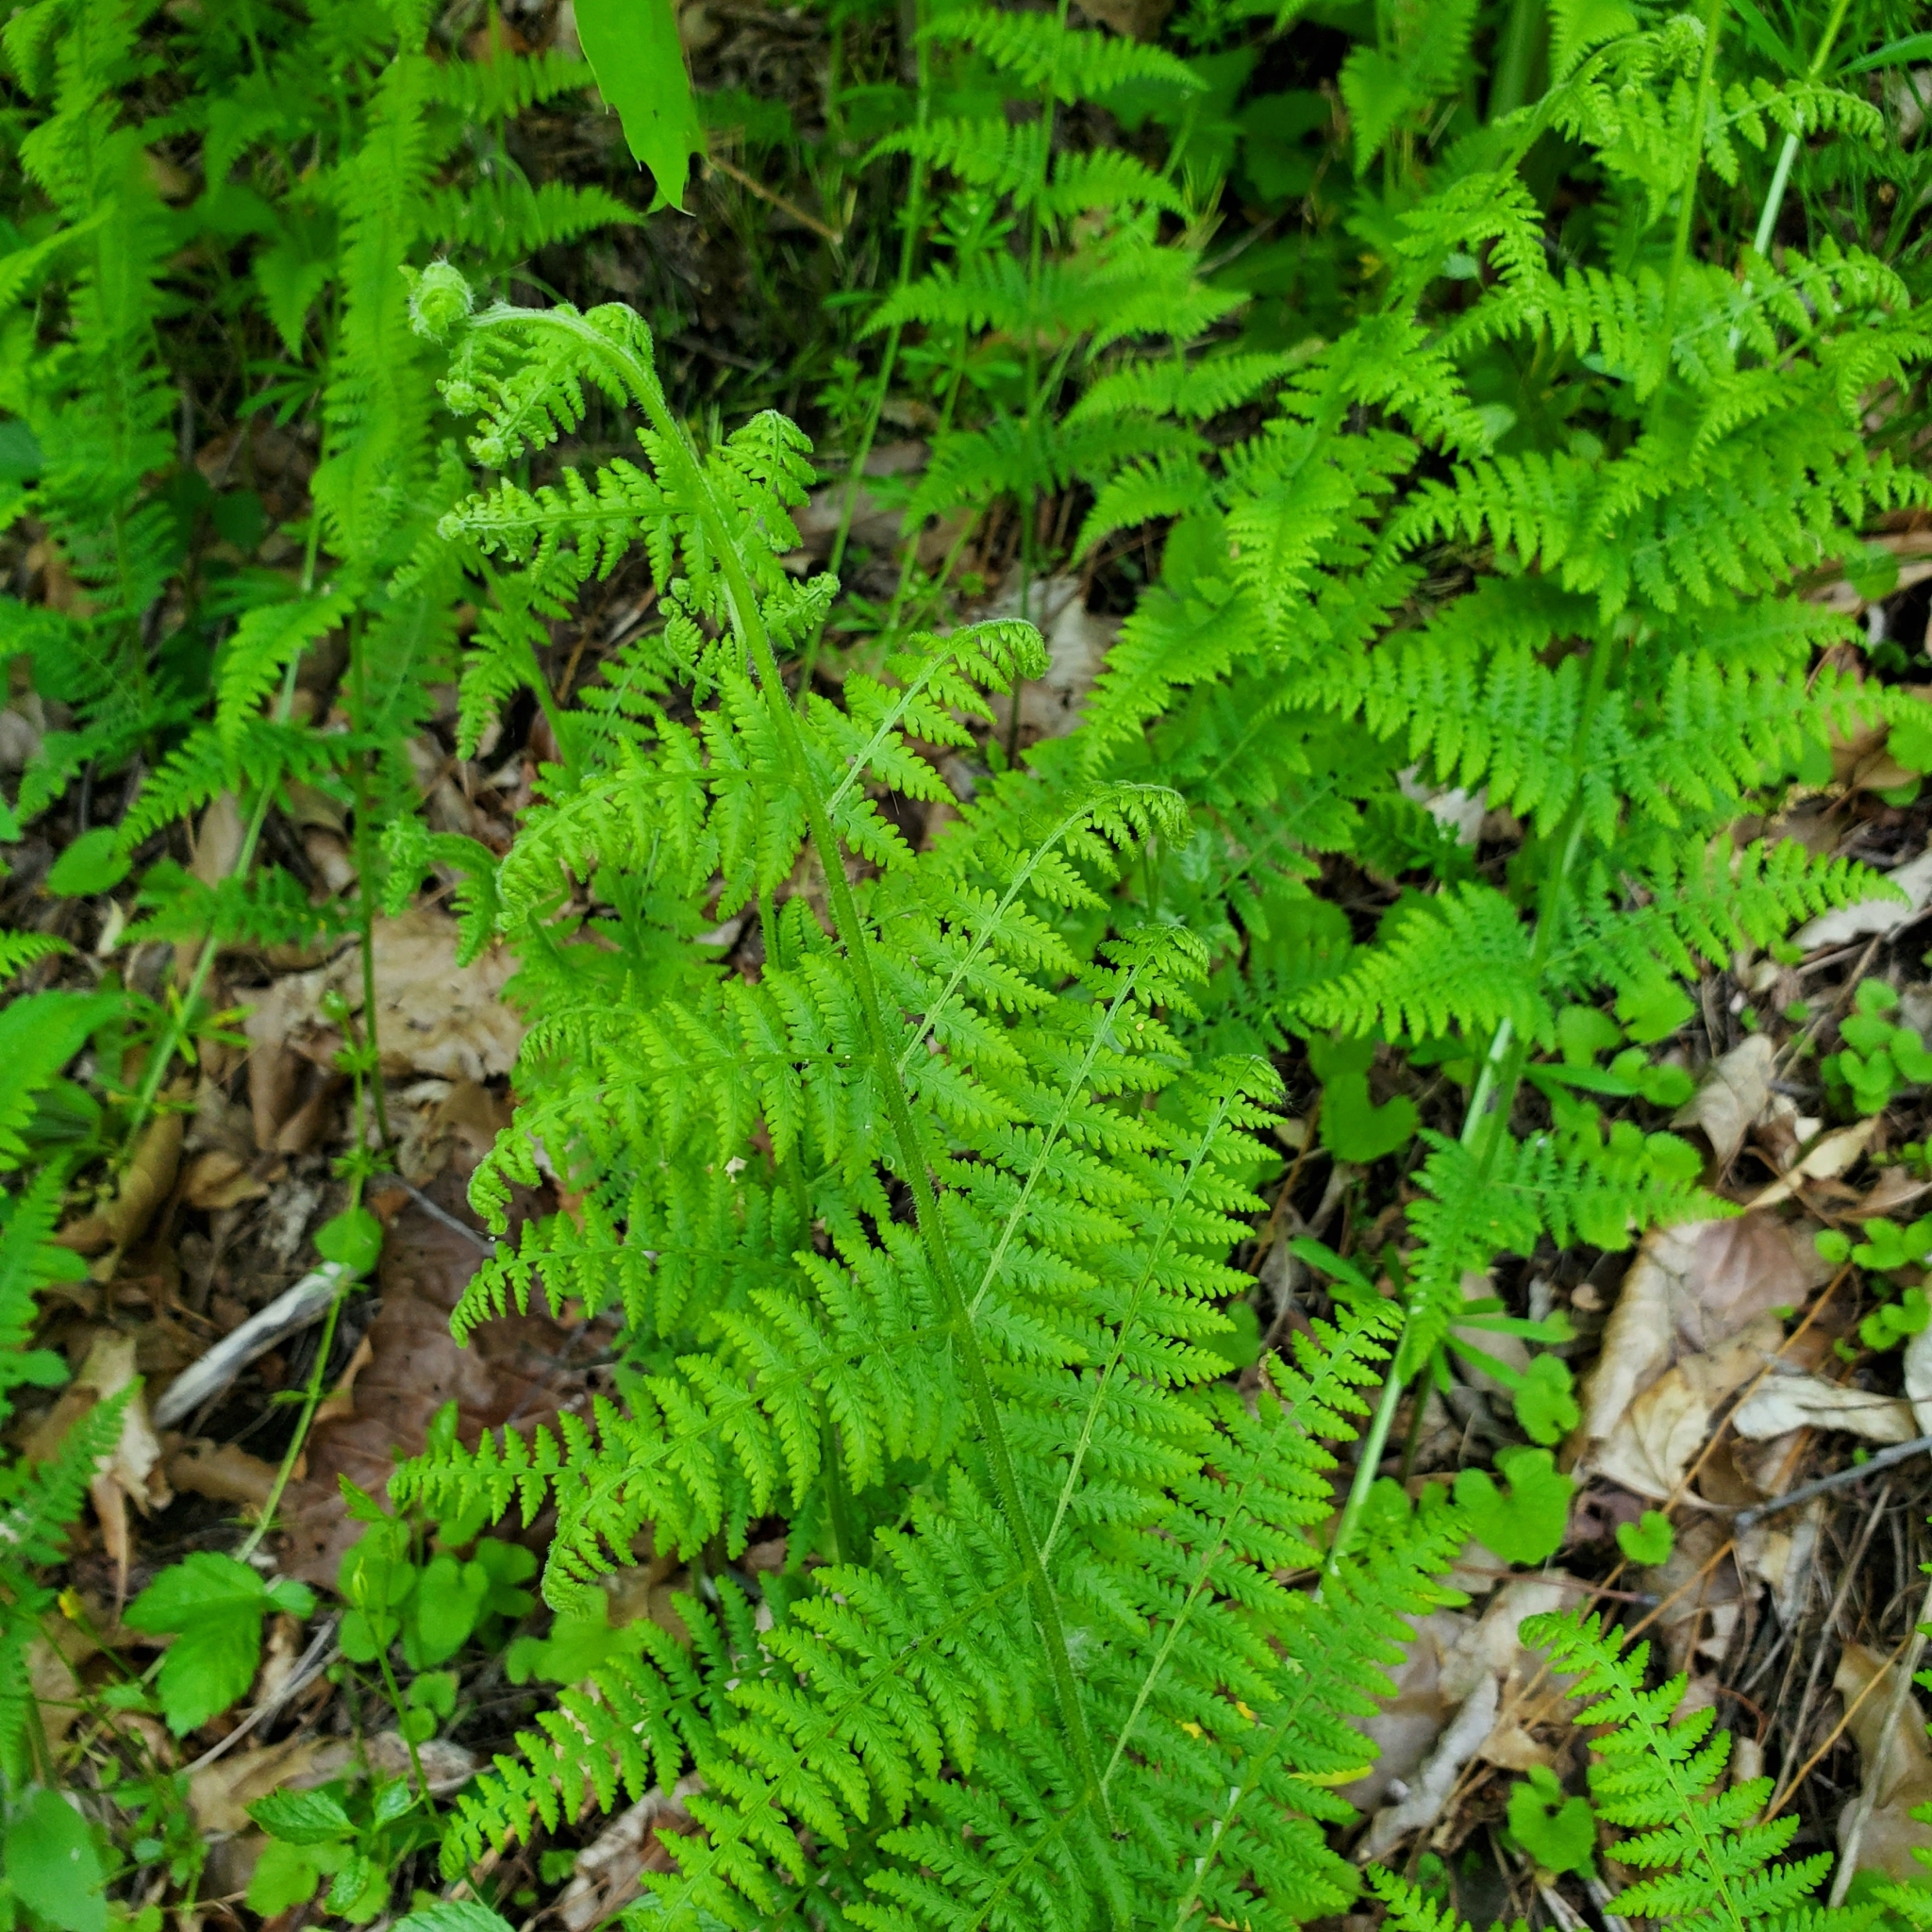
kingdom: Plantae
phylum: Tracheophyta
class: Polypodiopsida
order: Polypodiales
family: Dennstaedtiaceae
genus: Sitobolium
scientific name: Sitobolium punctilobum
